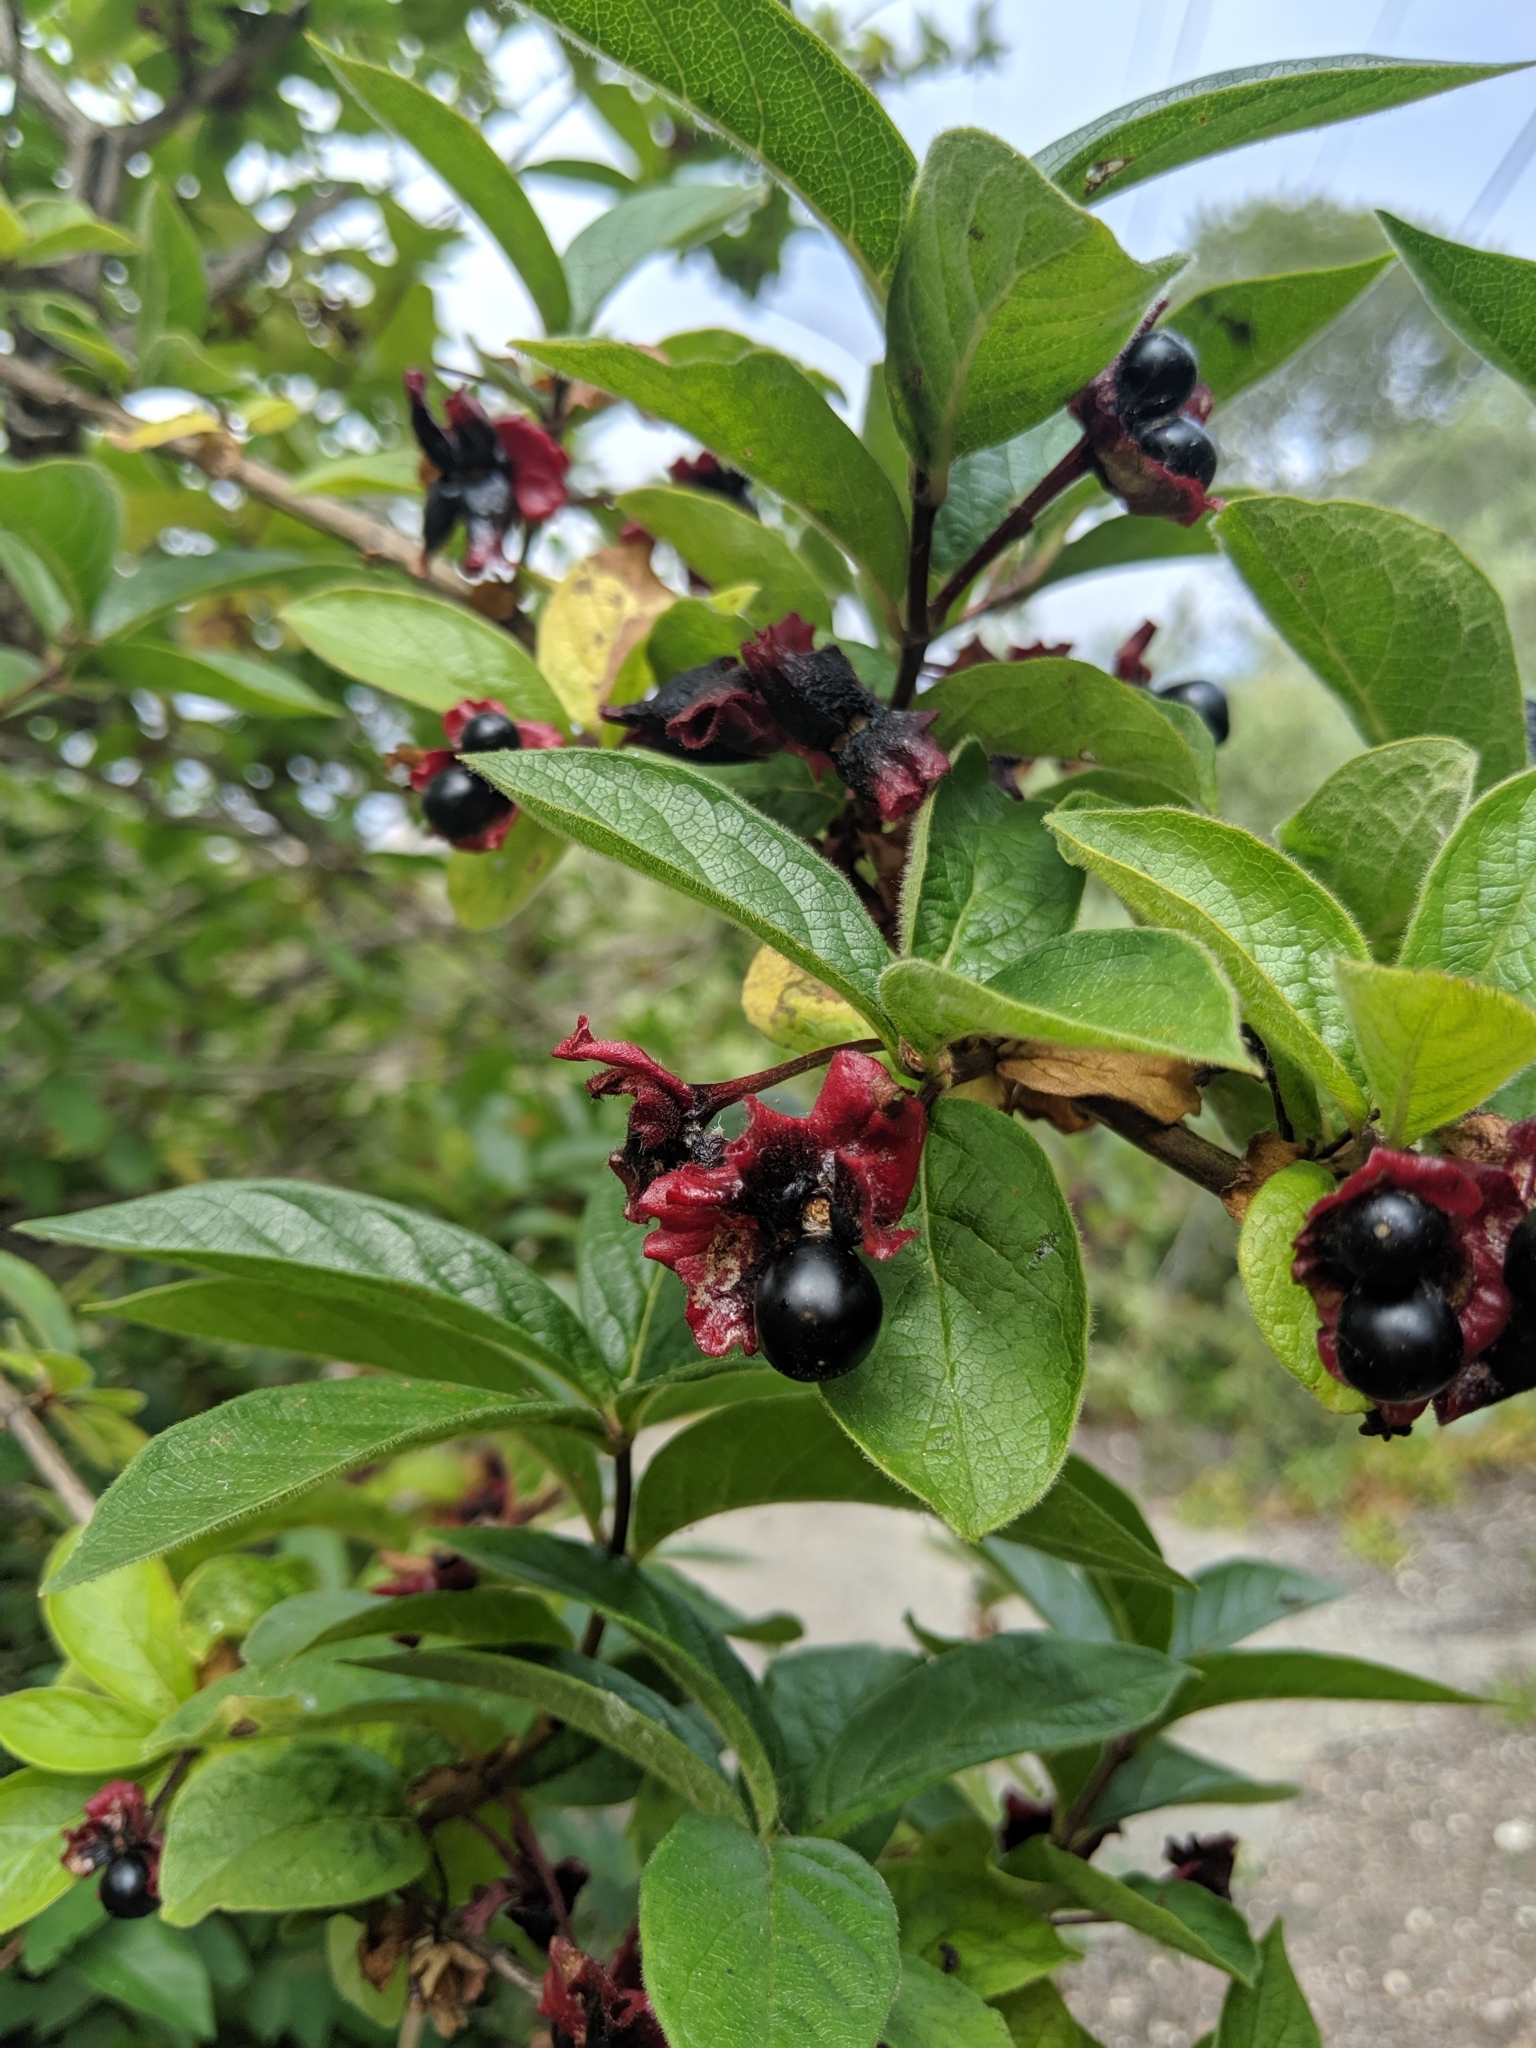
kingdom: Plantae
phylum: Tracheophyta
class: Magnoliopsida
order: Dipsacales
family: Caprifoliaceae
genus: Lonicera
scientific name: Lonicera involucrata
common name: Californian honeysuckle
